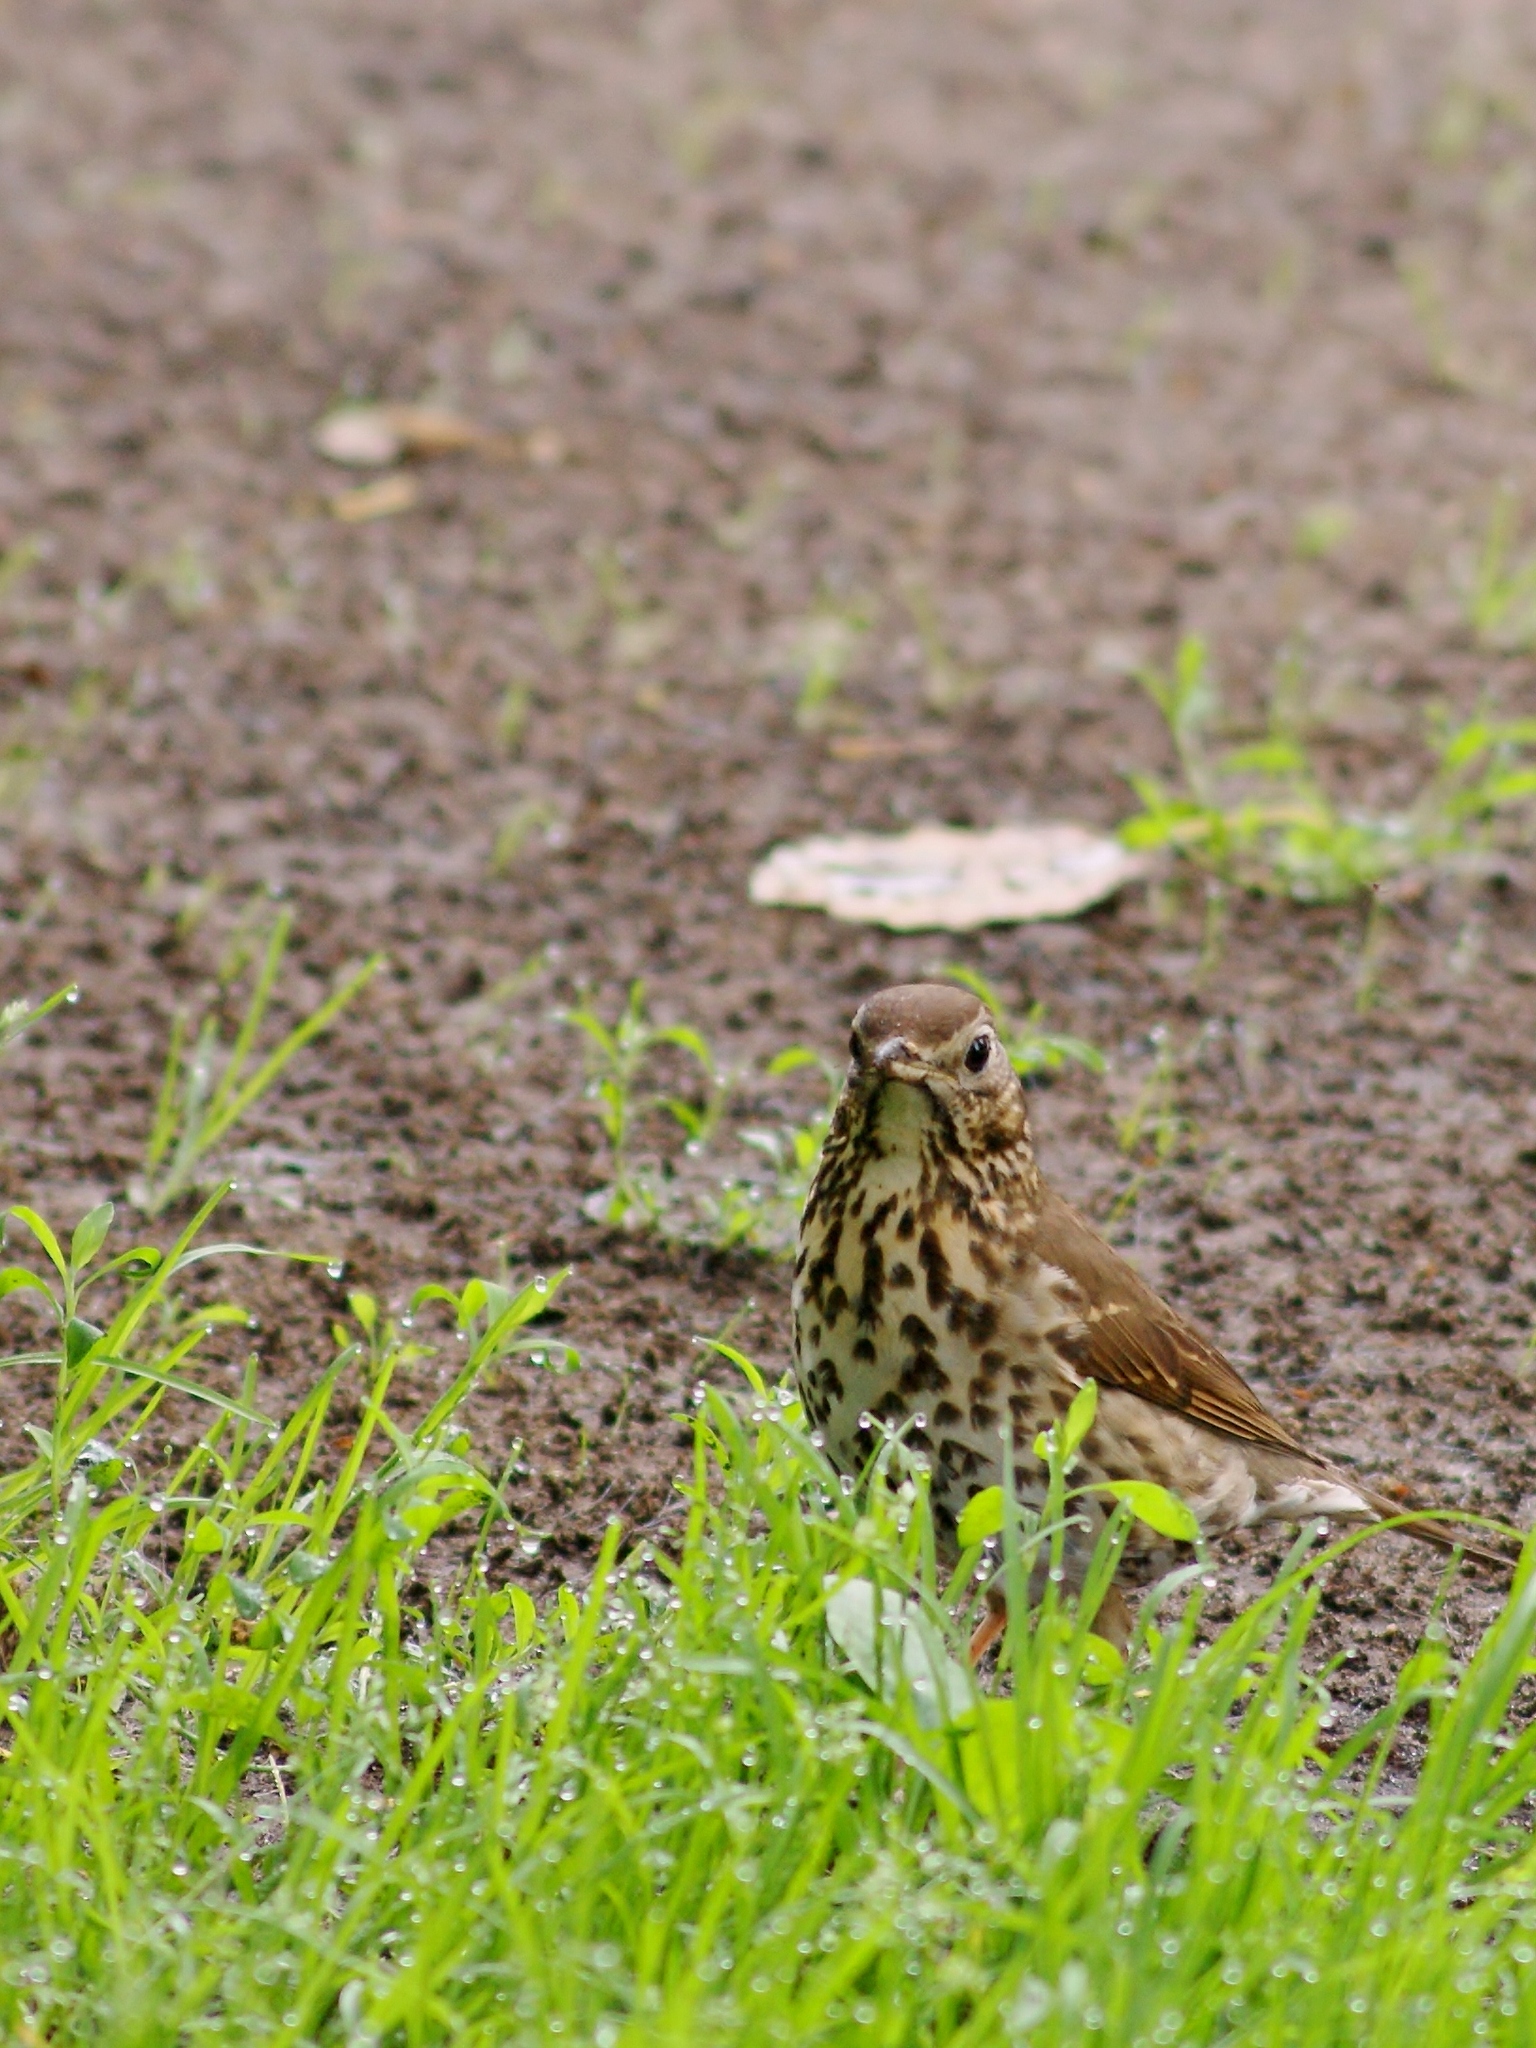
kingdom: Animalia
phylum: Chordata
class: Aves
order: Passeriformes
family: Turdidae
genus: Turdus
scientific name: Turdus philomelos
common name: Song thrush
